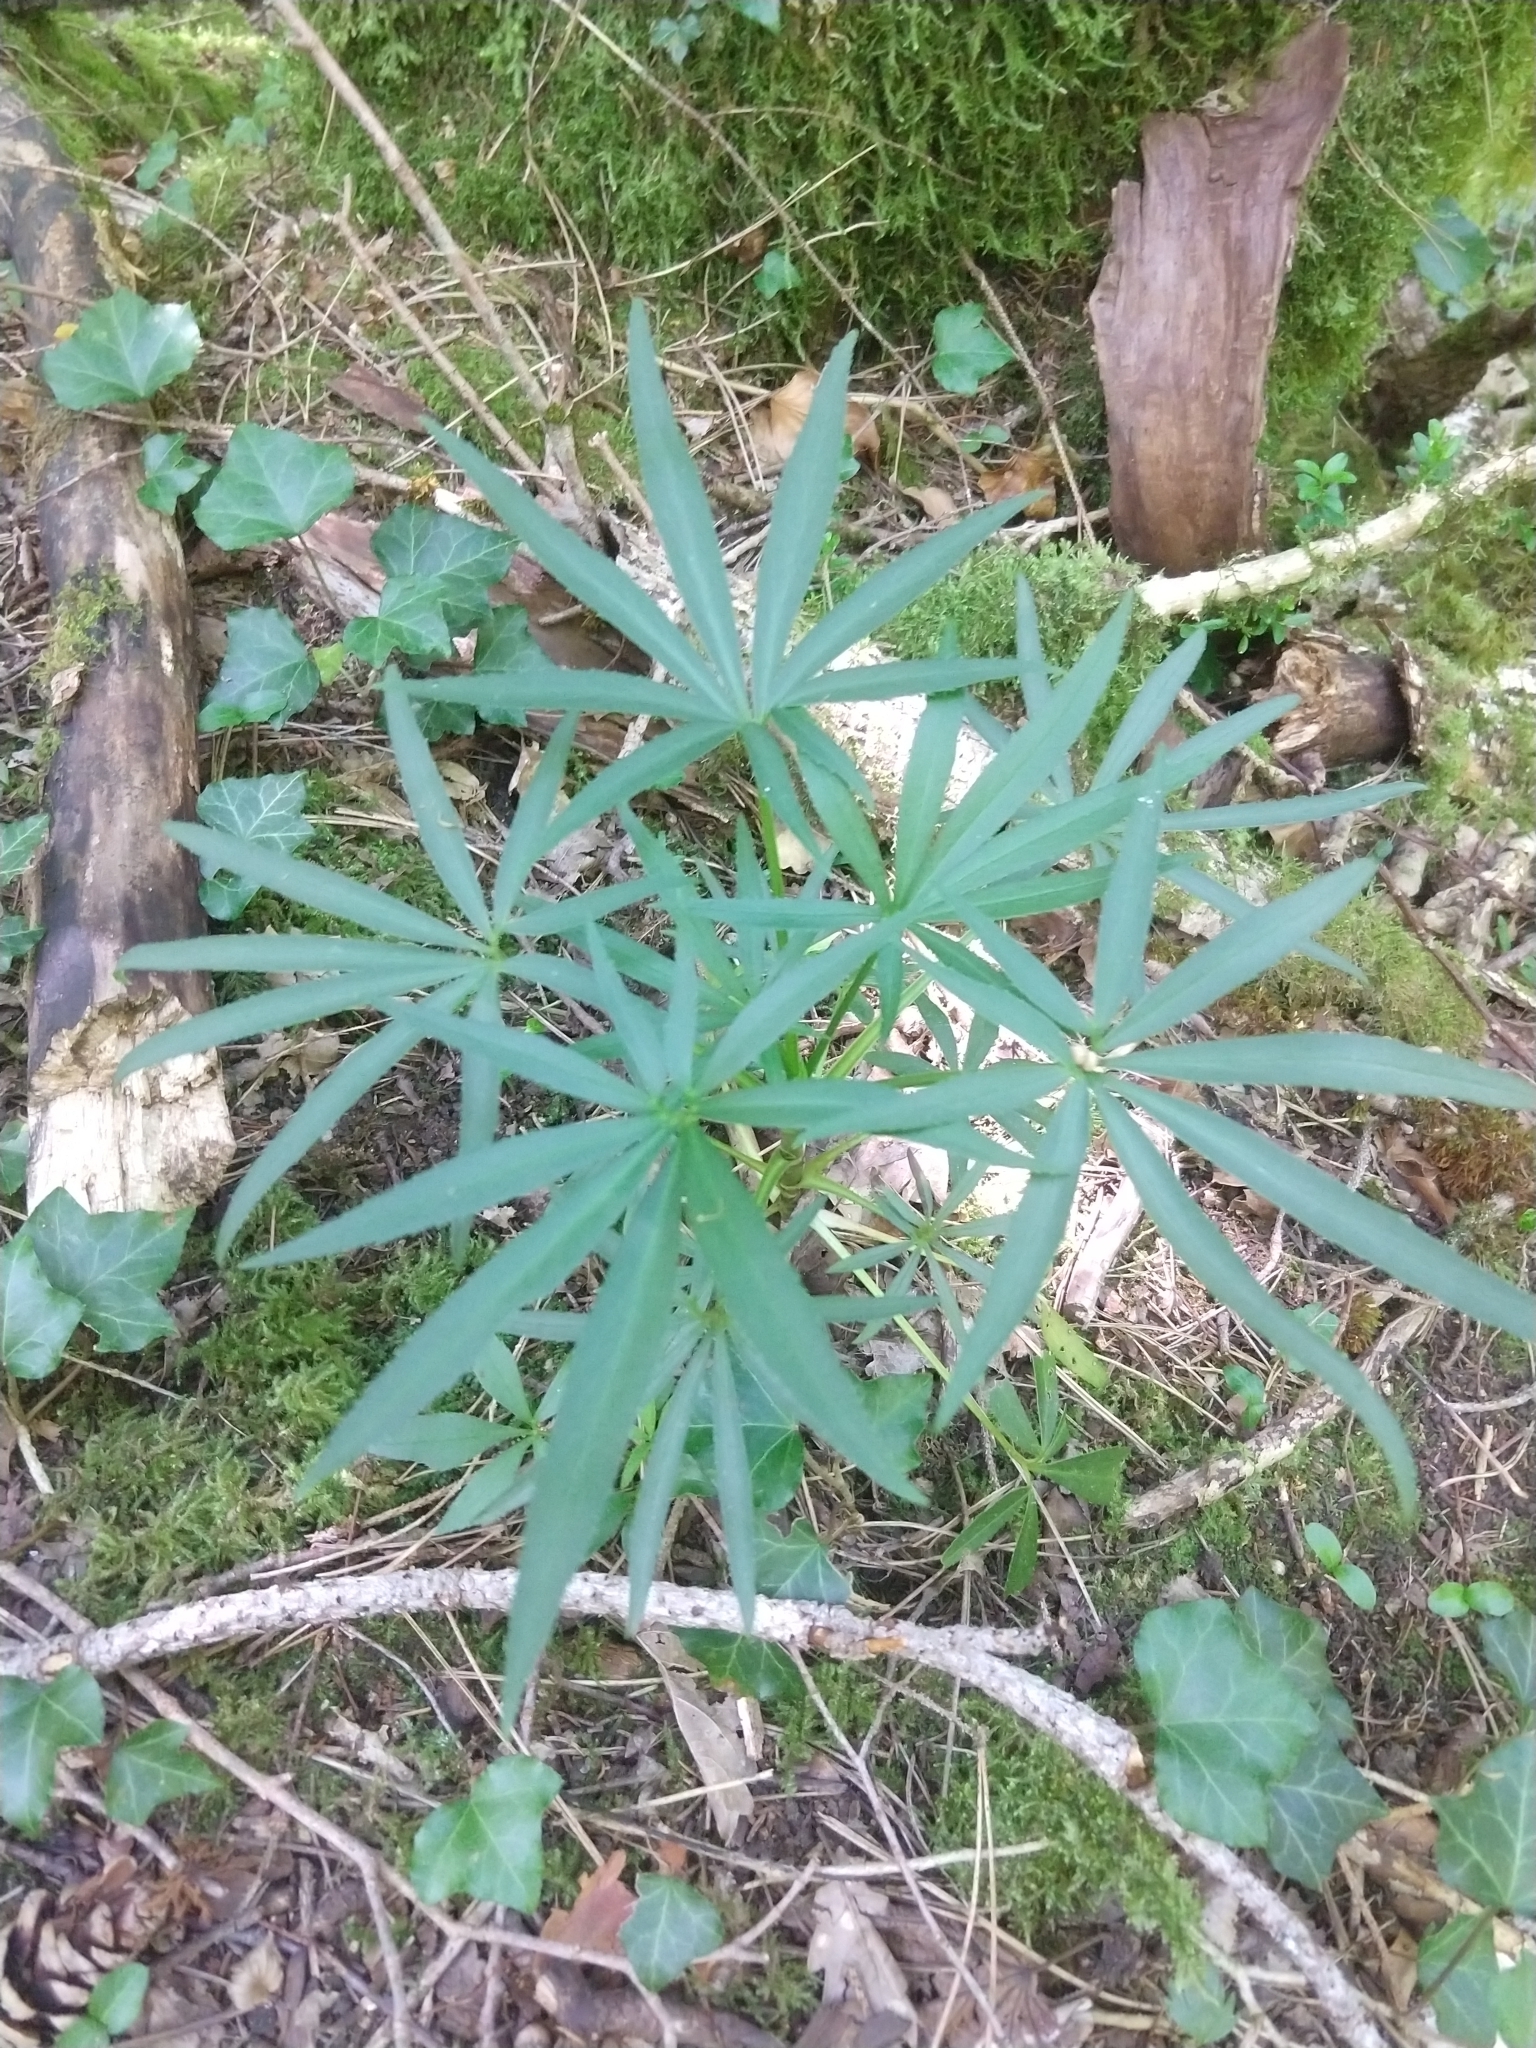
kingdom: Plantae
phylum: Tracheophyta
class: Magnoliopsida
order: Ranunculales
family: Ranunculaceae
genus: Helleborus
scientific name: Helleborus foetidus
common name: Stinking hellebore
